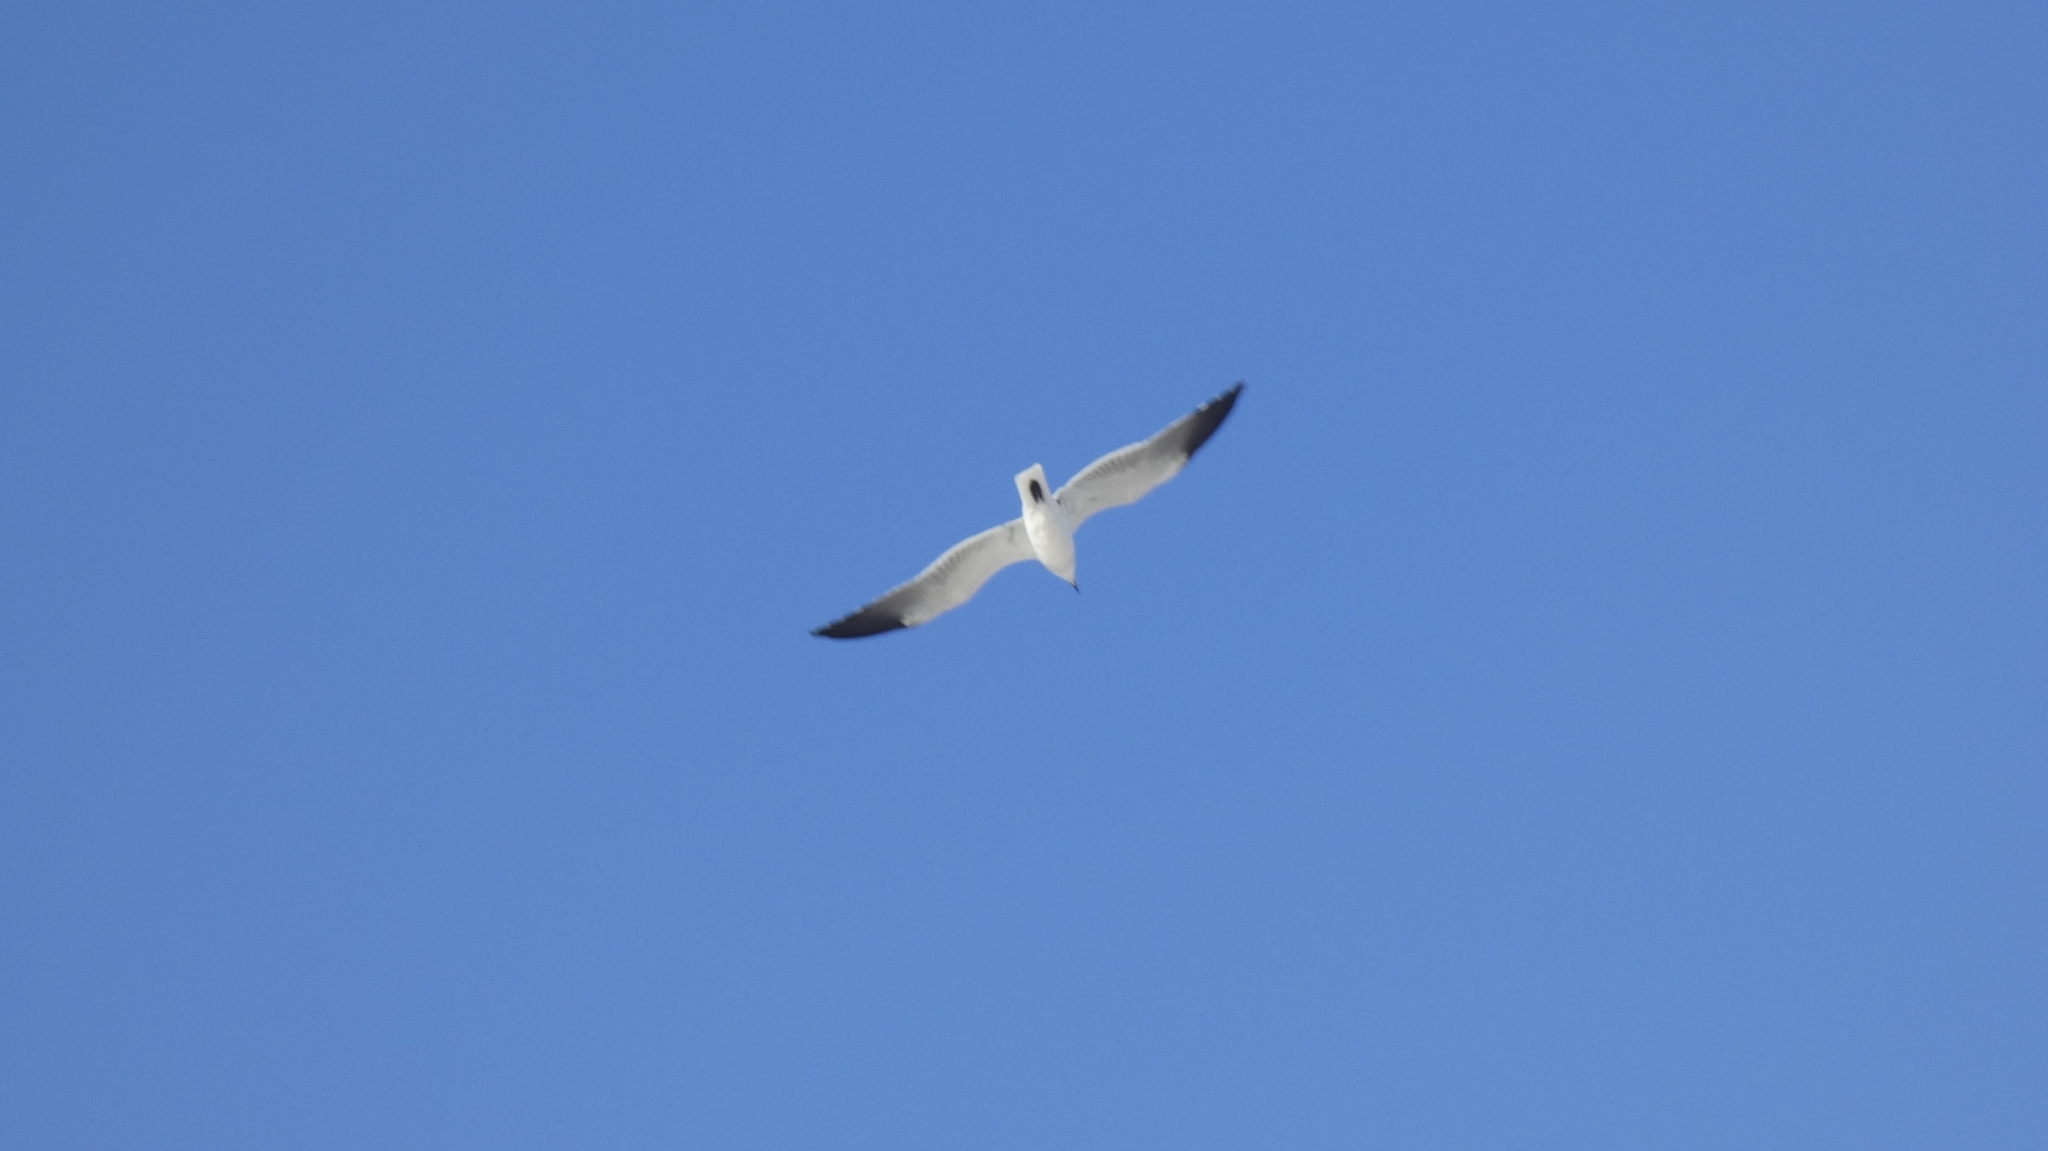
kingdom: Animalia
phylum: Chordata
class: Aves
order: Charadriiformes
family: Laridae
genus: Leucophaeus
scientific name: Leucophaeus atricilla
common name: Laughing gull
